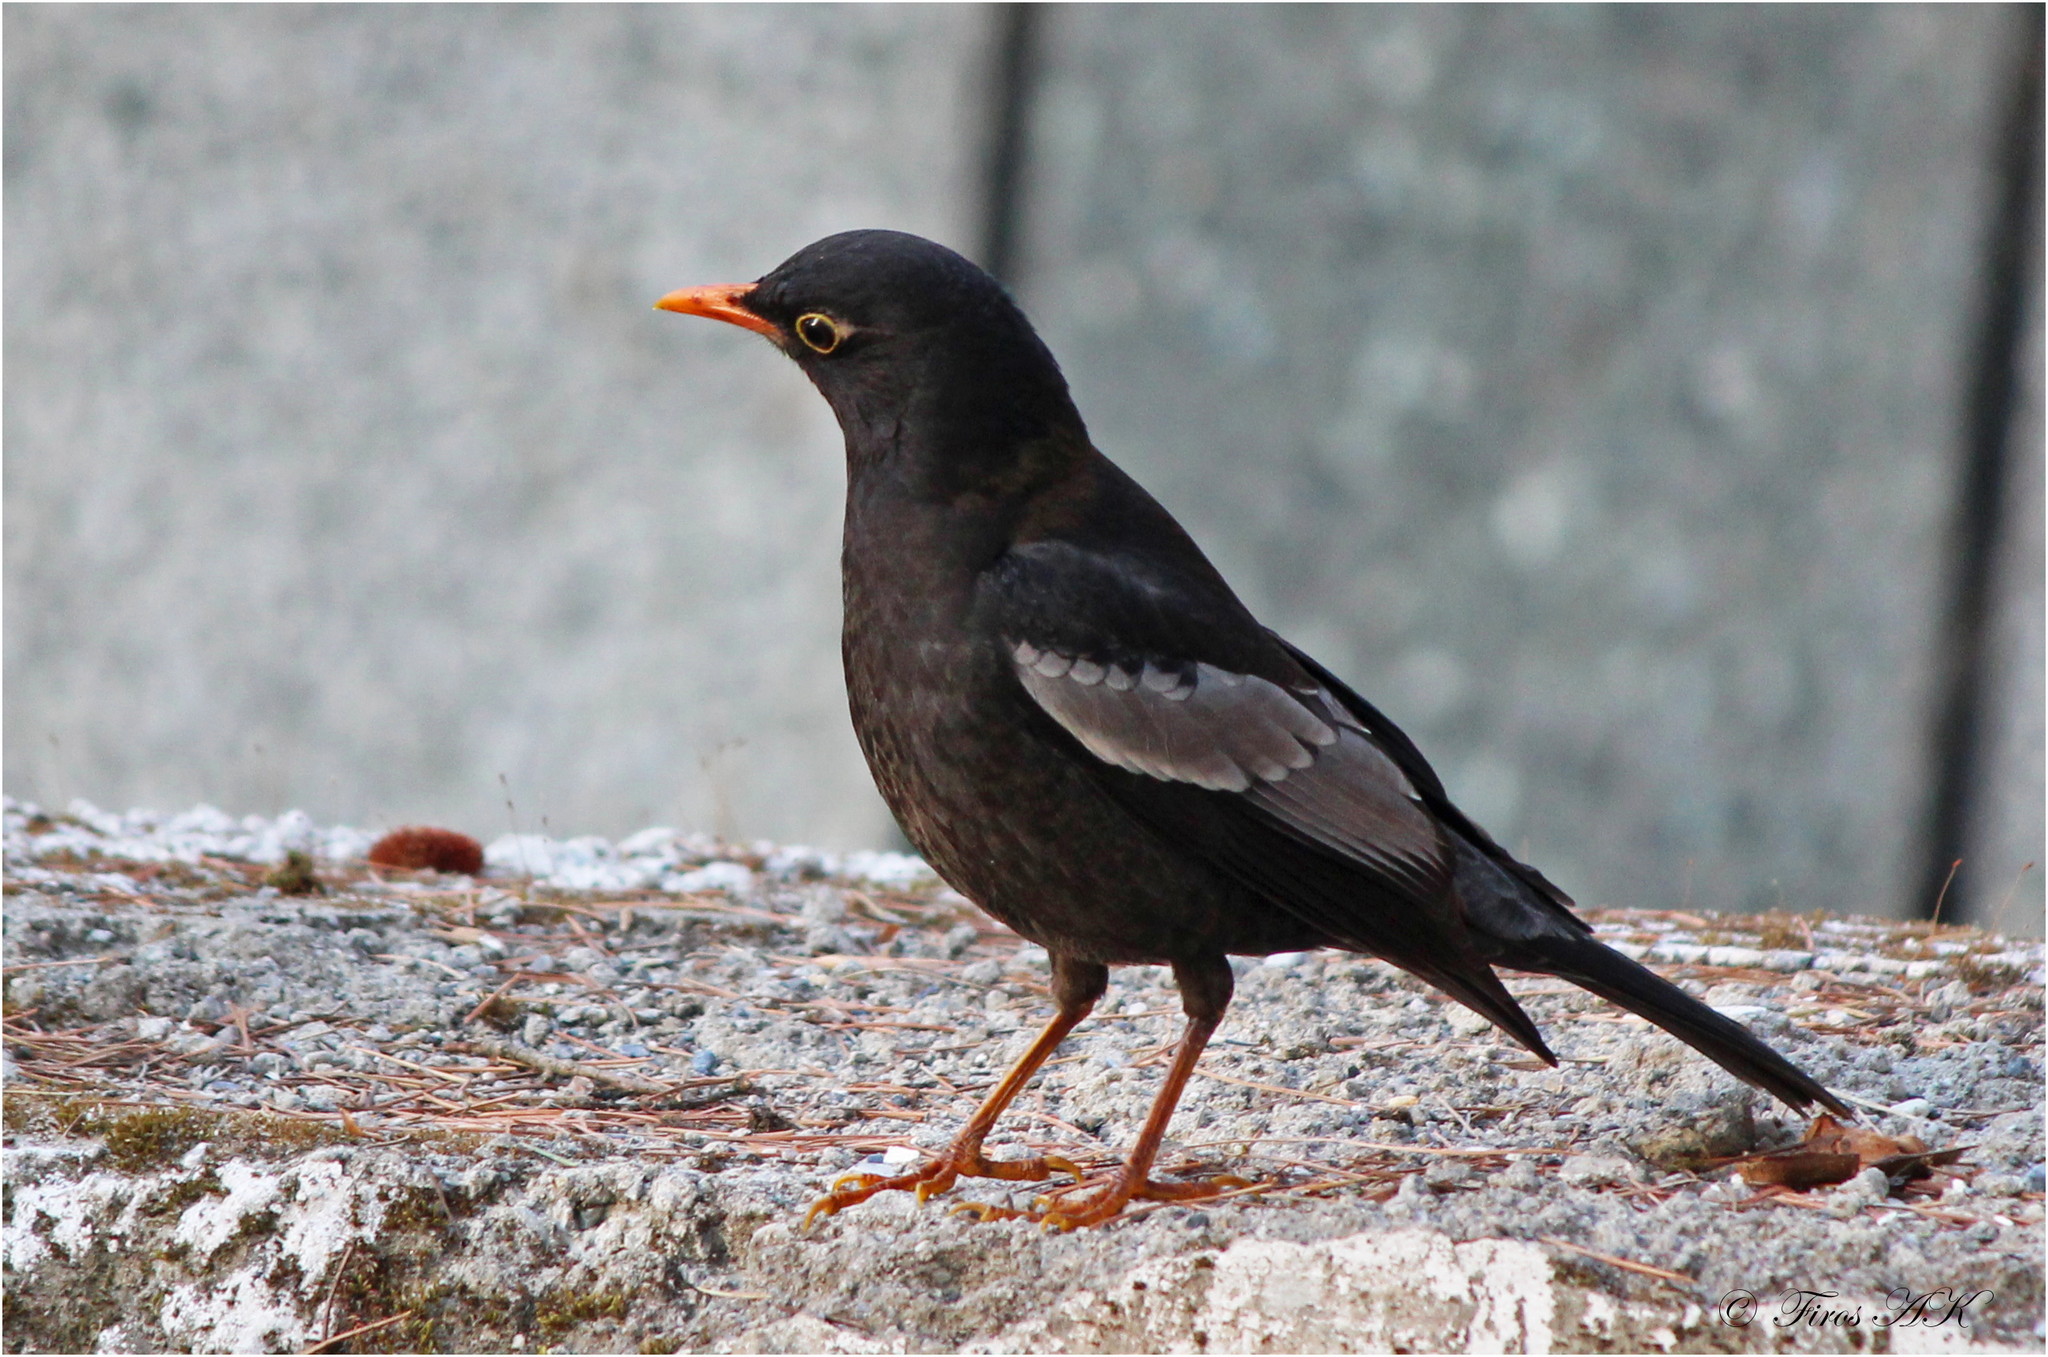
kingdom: Animalia
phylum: Chordata
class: Aves
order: Passeriformes
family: Turdidae
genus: Turdus
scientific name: Turdus boulboul
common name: Grey-winged blackbird
